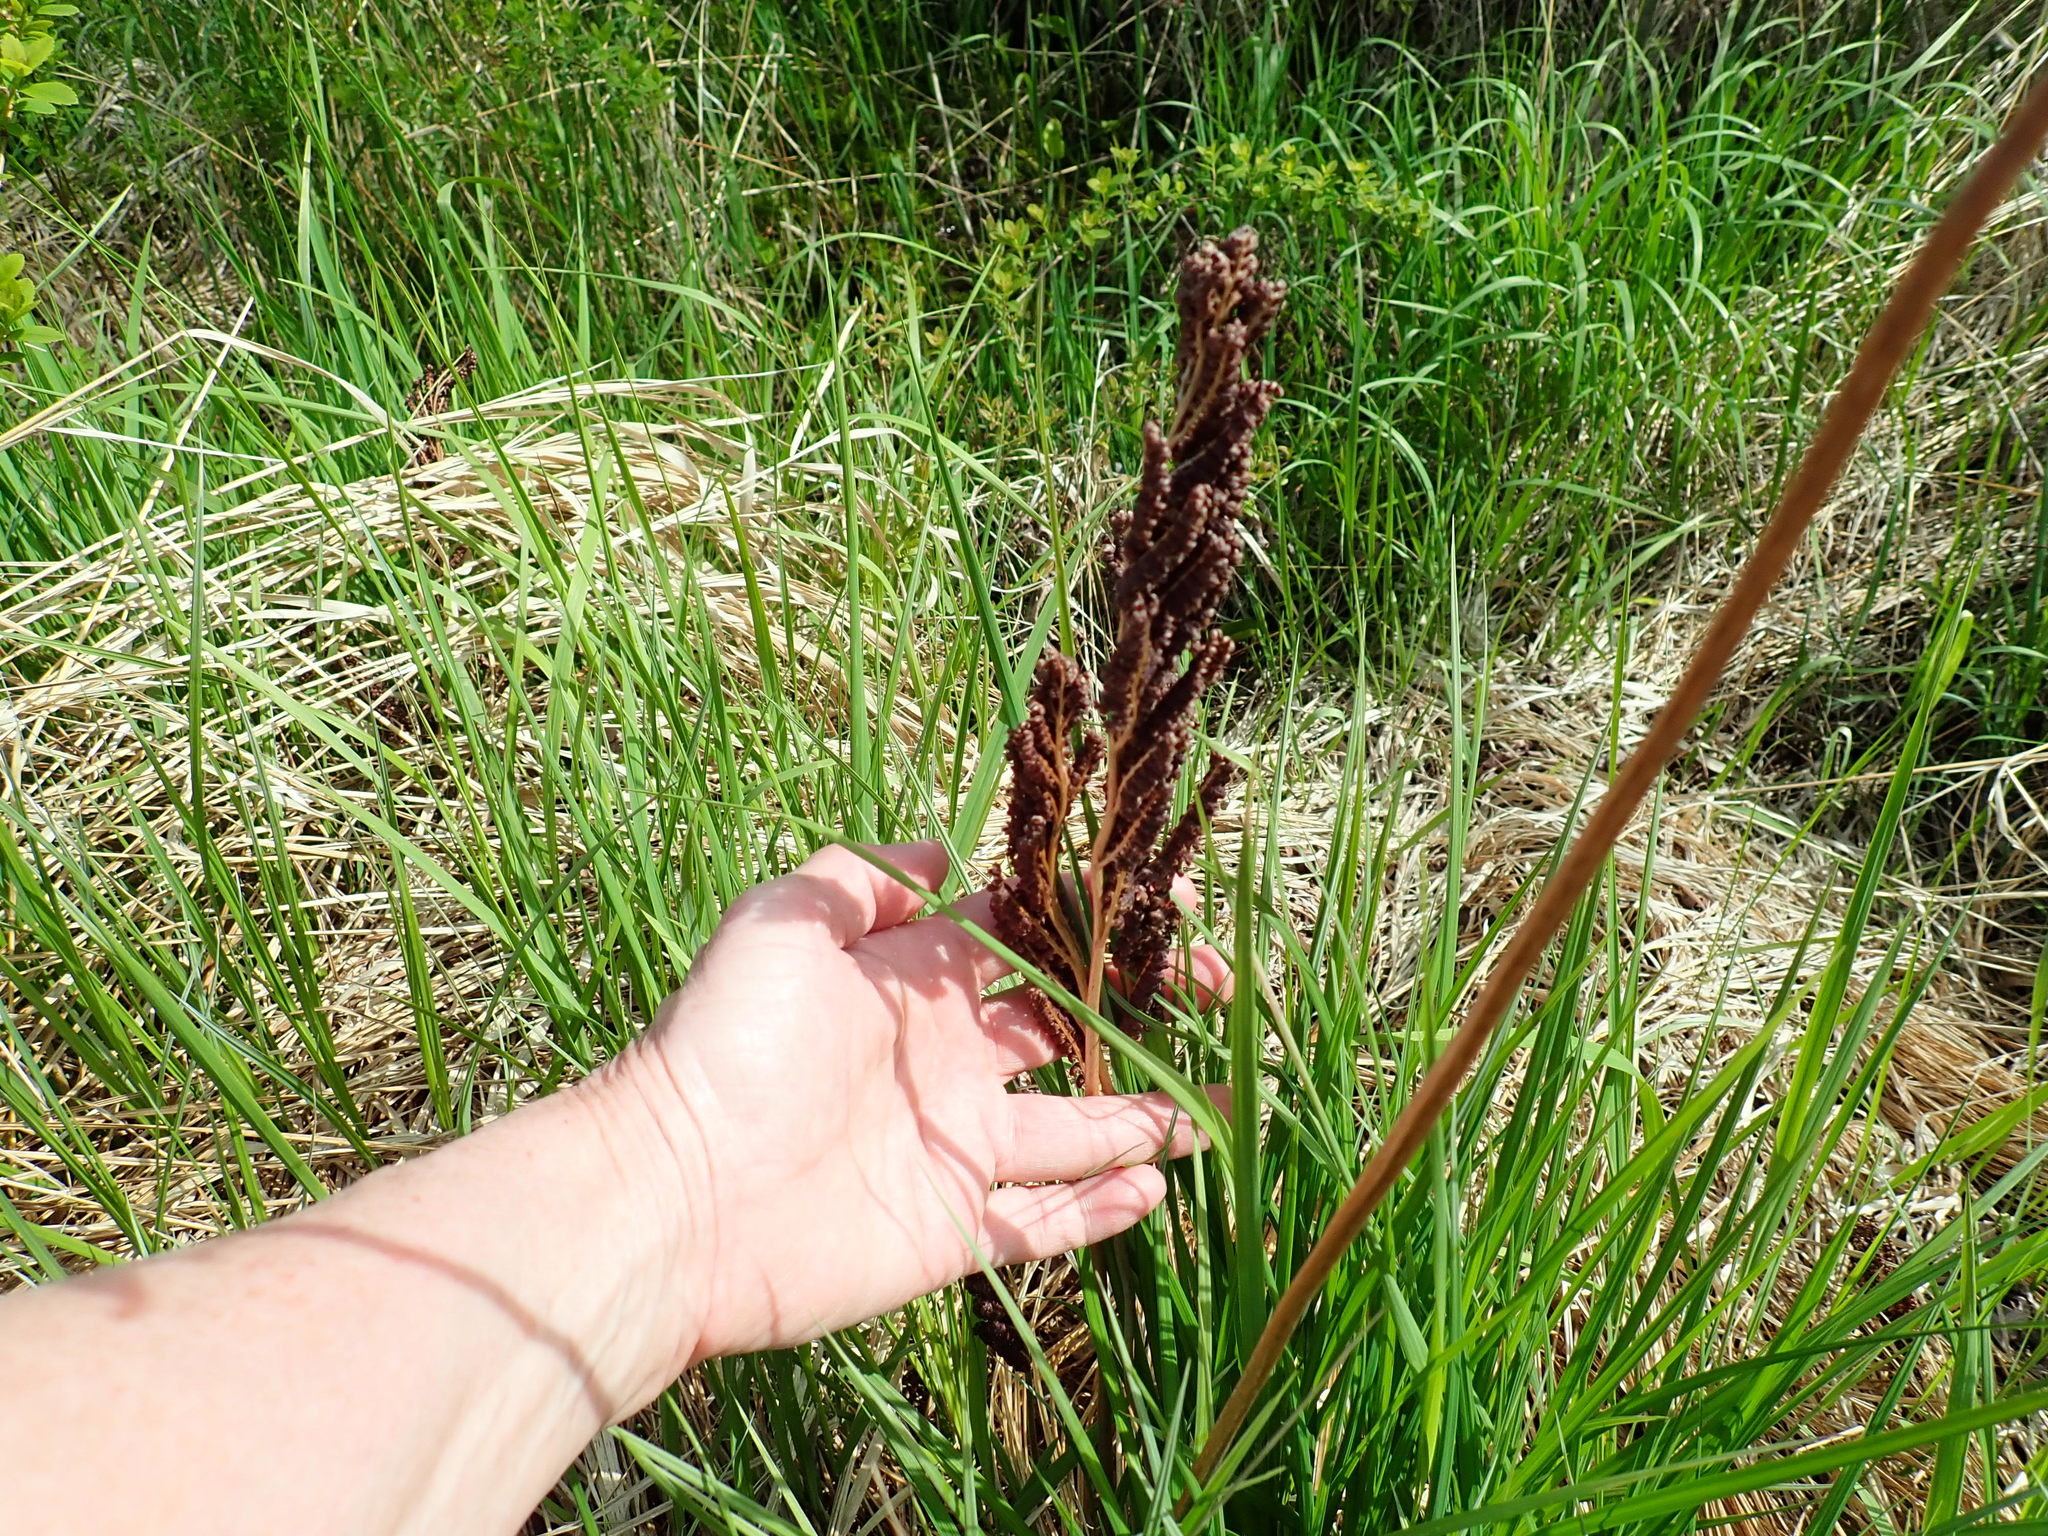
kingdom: Plantae
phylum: Tracheophyta
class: Polypodiopsida
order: Polypodiales
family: Onocleaceae
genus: Onoclea
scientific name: Onoclea sensibilis
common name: Sensitive fern
